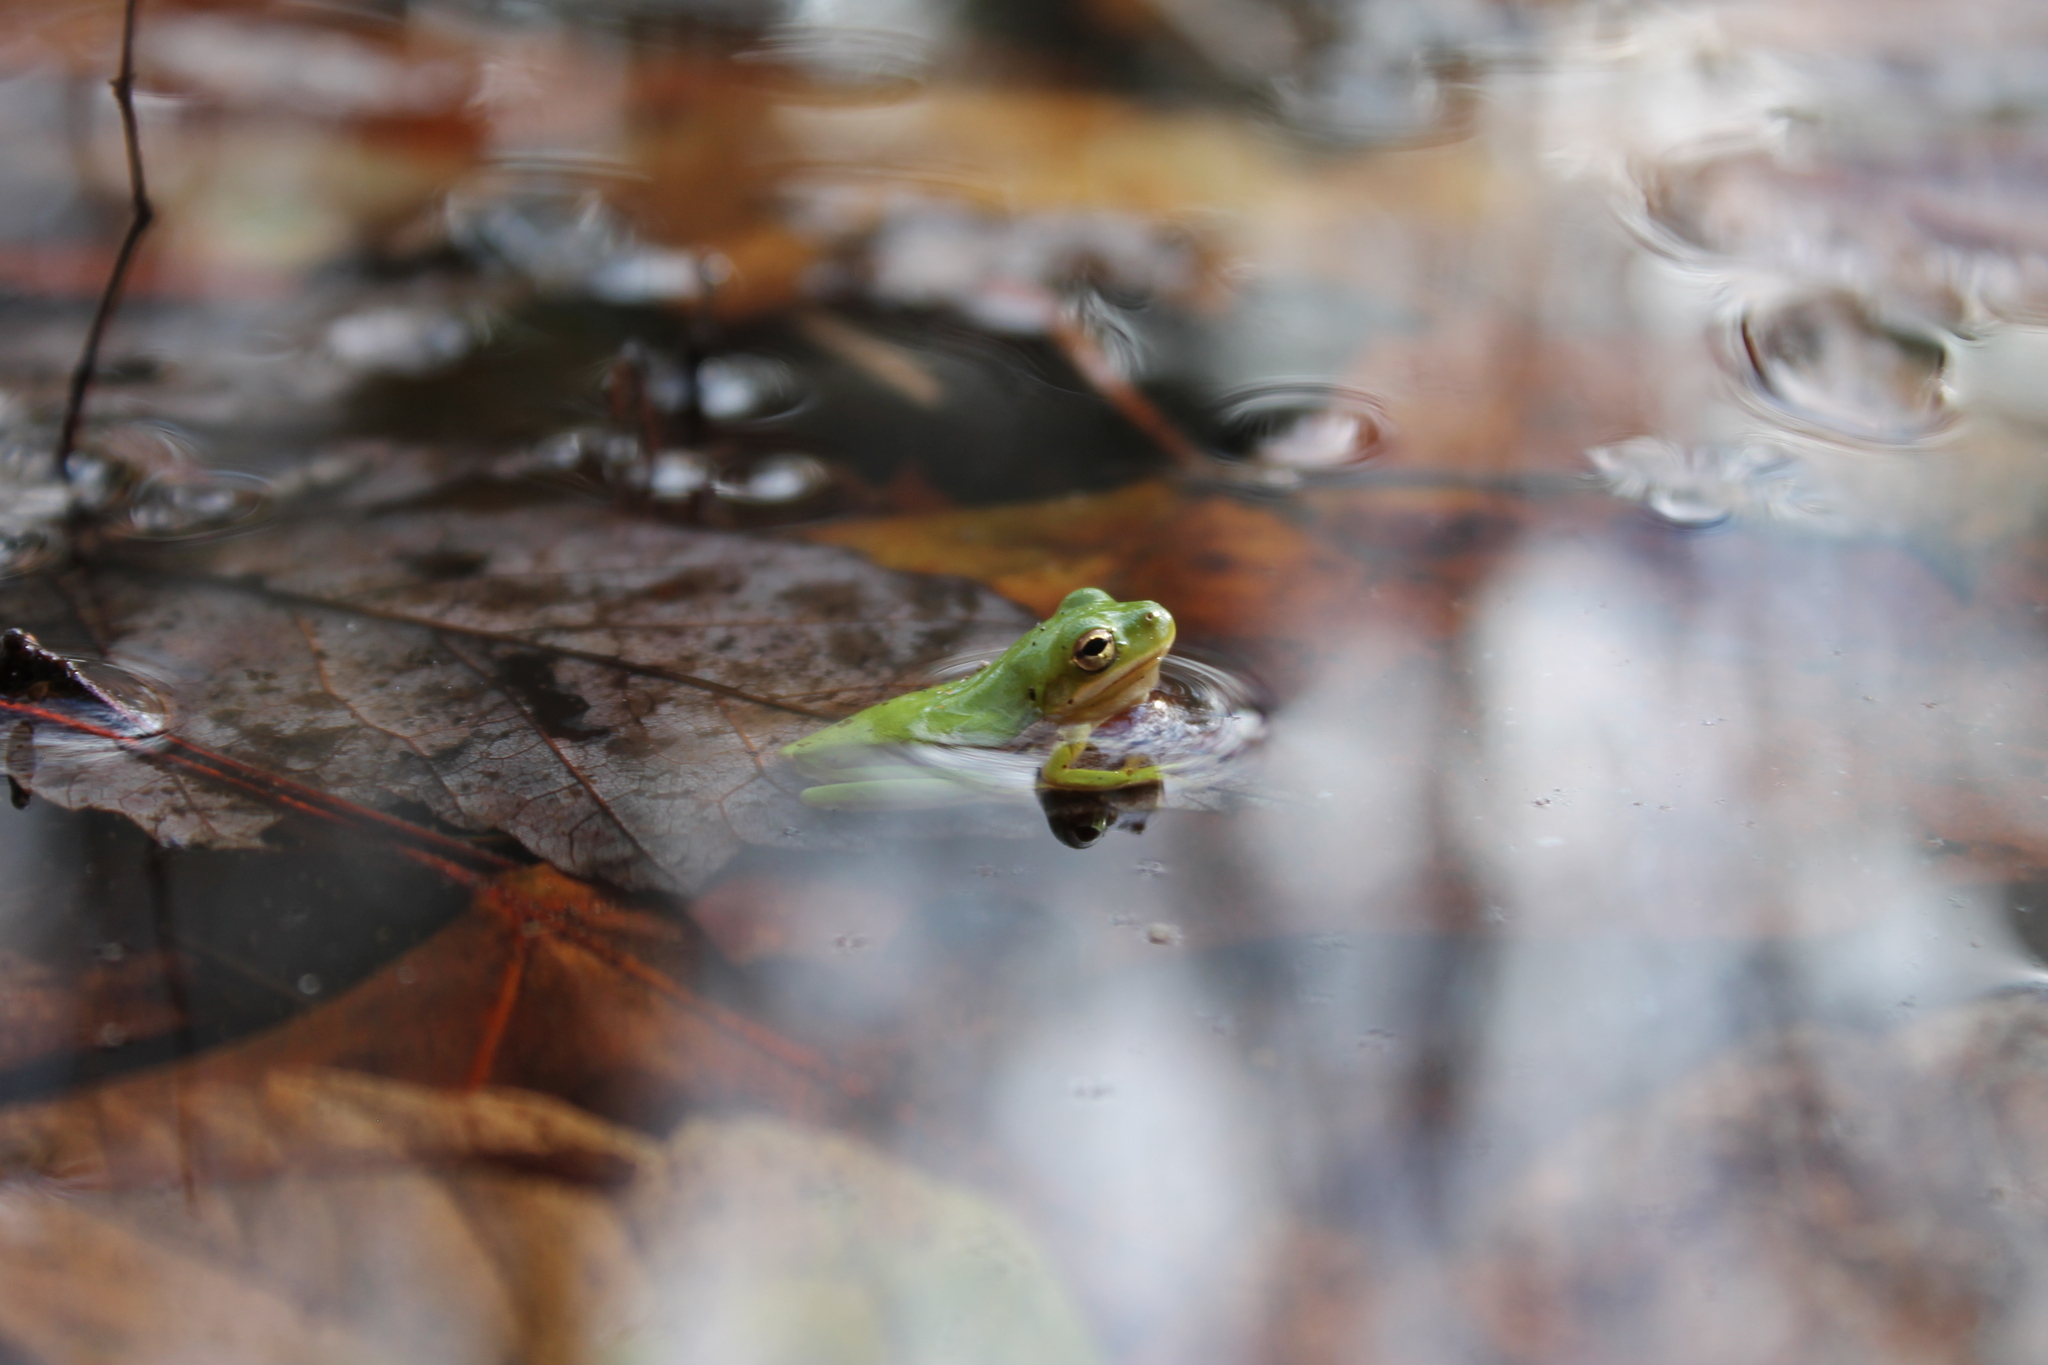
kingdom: Animalia
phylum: Chordata
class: Amphibia
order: Anura
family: Hylidae
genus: Dryophytes
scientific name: Dryophytes cinereus
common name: Green treefrog
